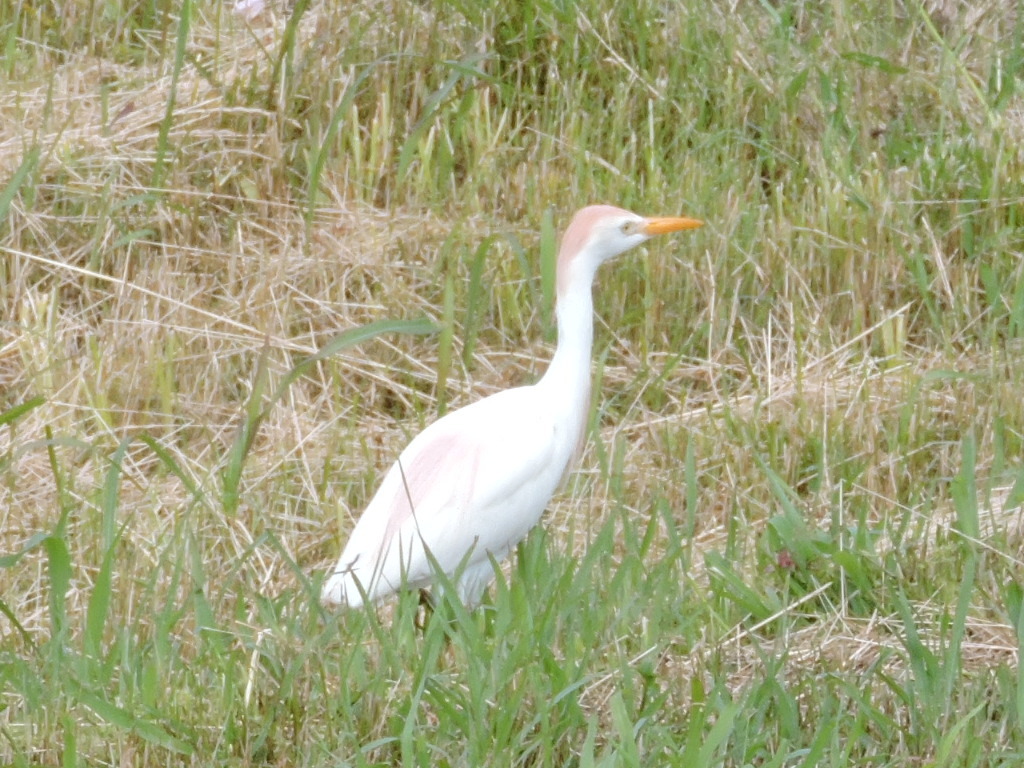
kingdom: Animalia
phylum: Chordata
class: Aves
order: Pelecaniformes
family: Ardeidae
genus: Bubulcus
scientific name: Bubulcus ibis
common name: Cattle egret
